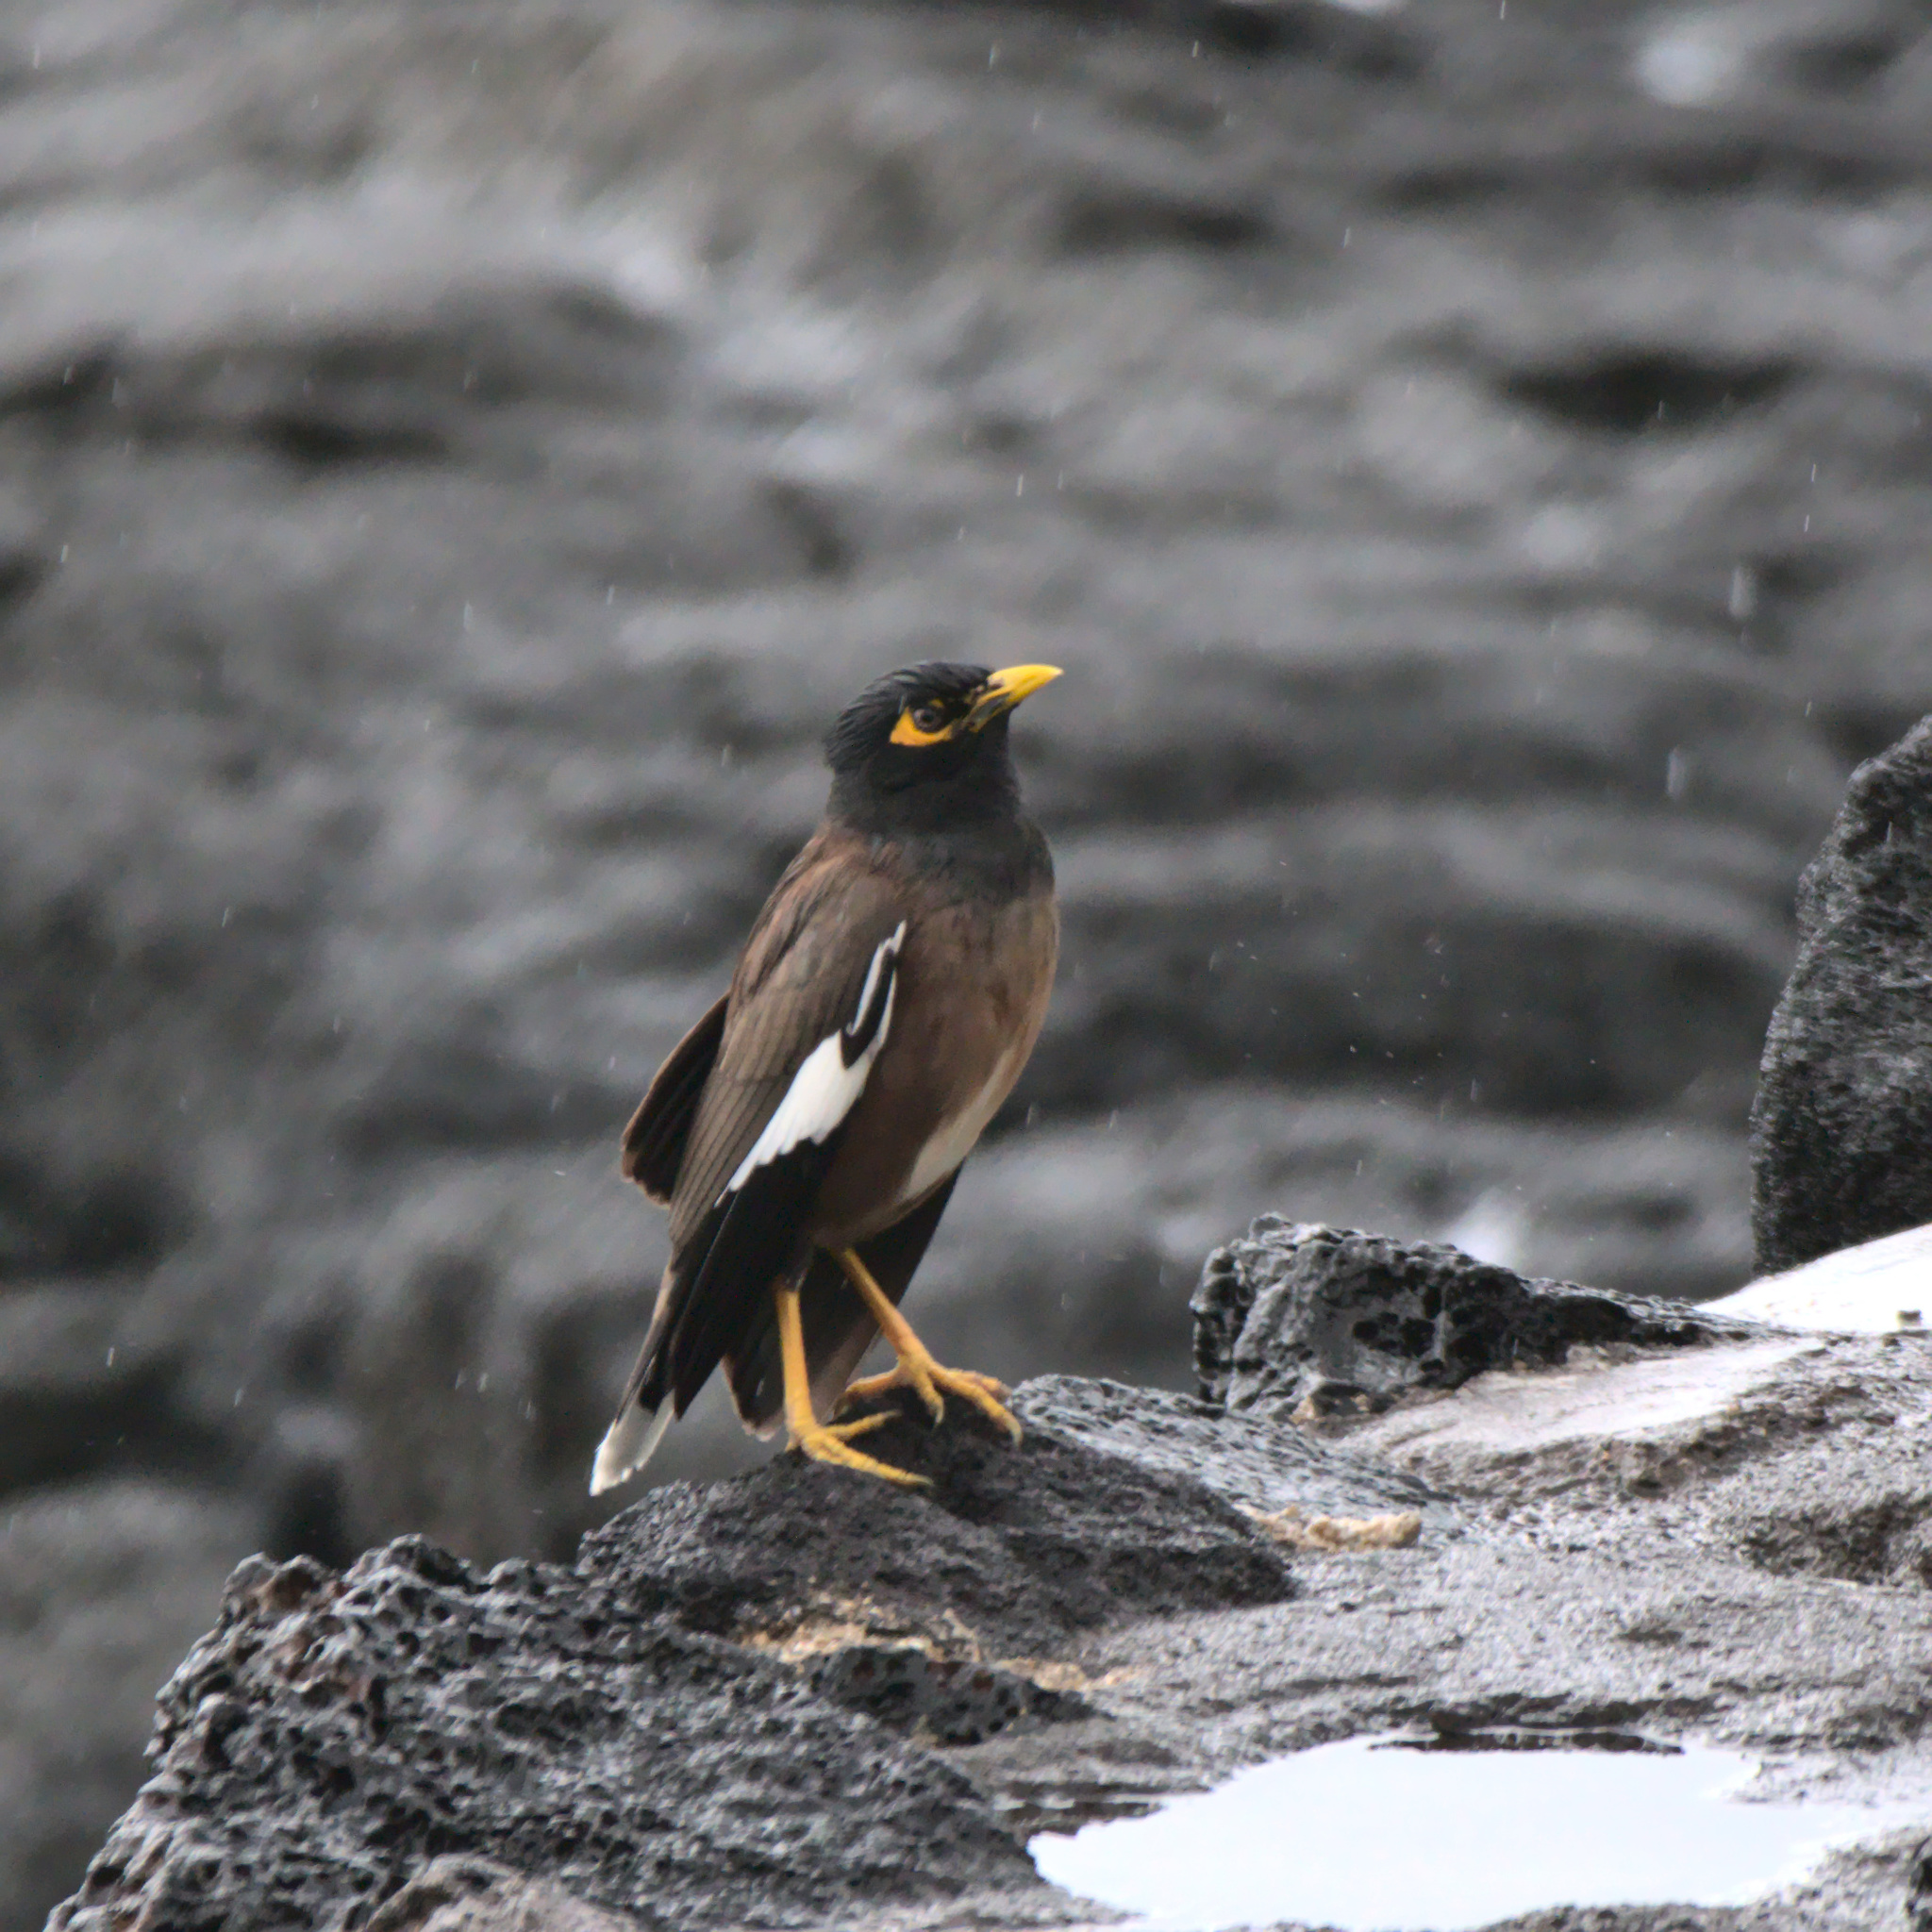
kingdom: Animalia
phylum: Chordata
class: Aves
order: Passeriformes
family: Sturnidae
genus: Acridotheres
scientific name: Acridotheres tristis
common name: Common myna
